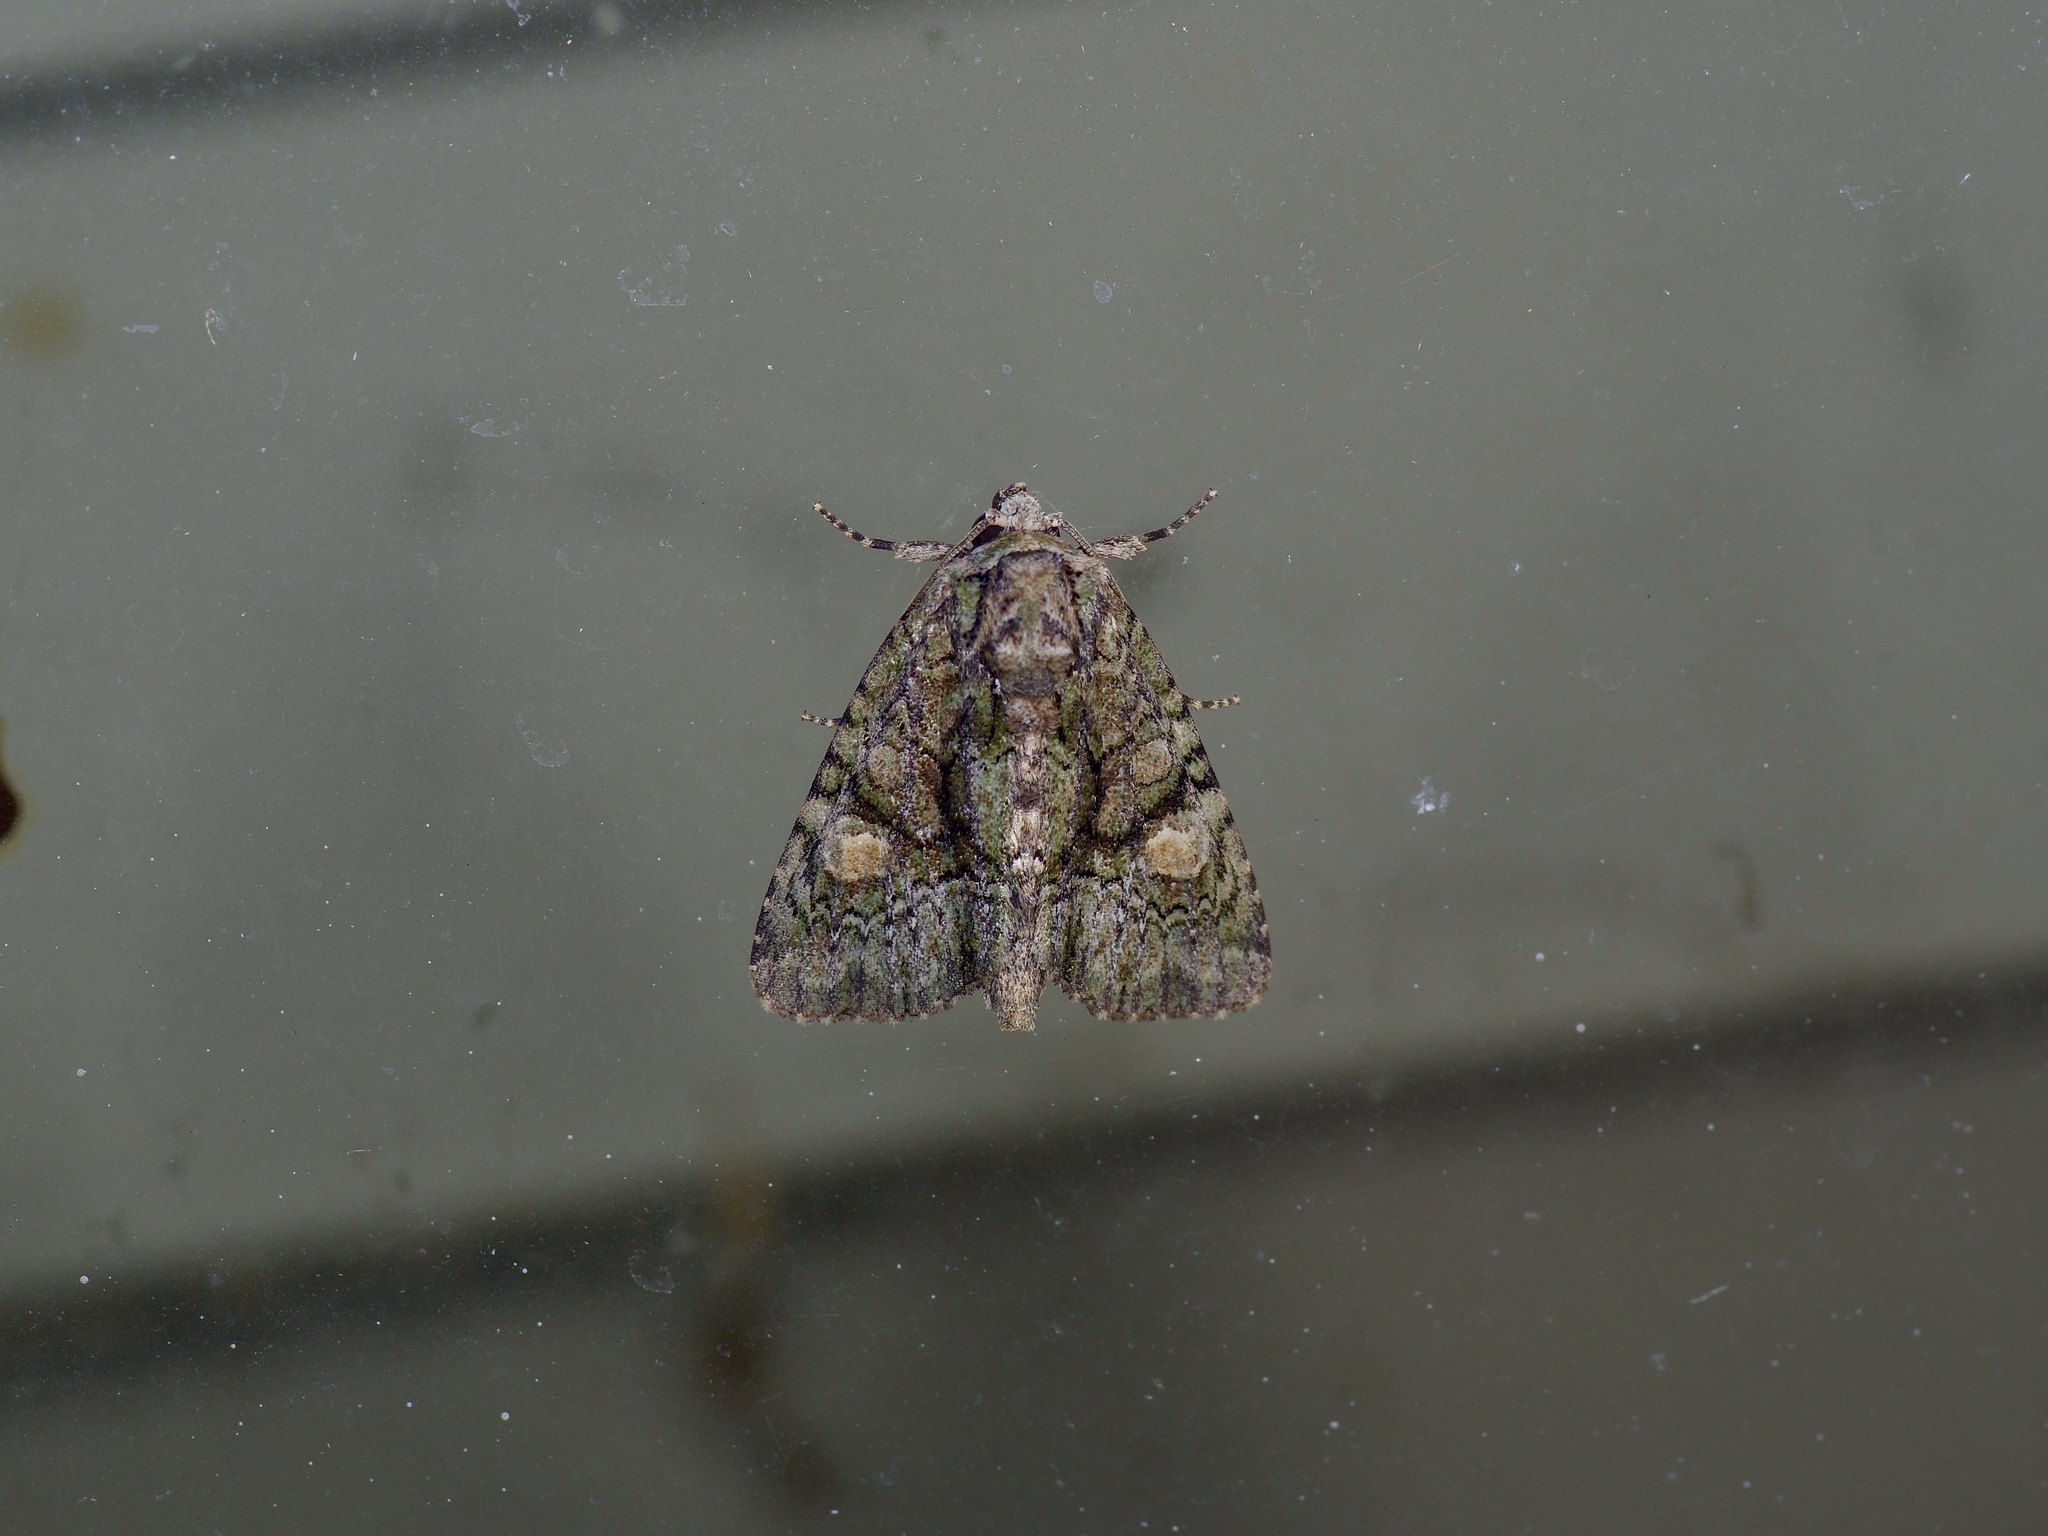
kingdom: Animalia
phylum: Arthropoda
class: Insecta
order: Lepidoptera
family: Noctuidae
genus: Phosphila
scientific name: Phosphila miselioides
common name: Spotted phosphila moth
